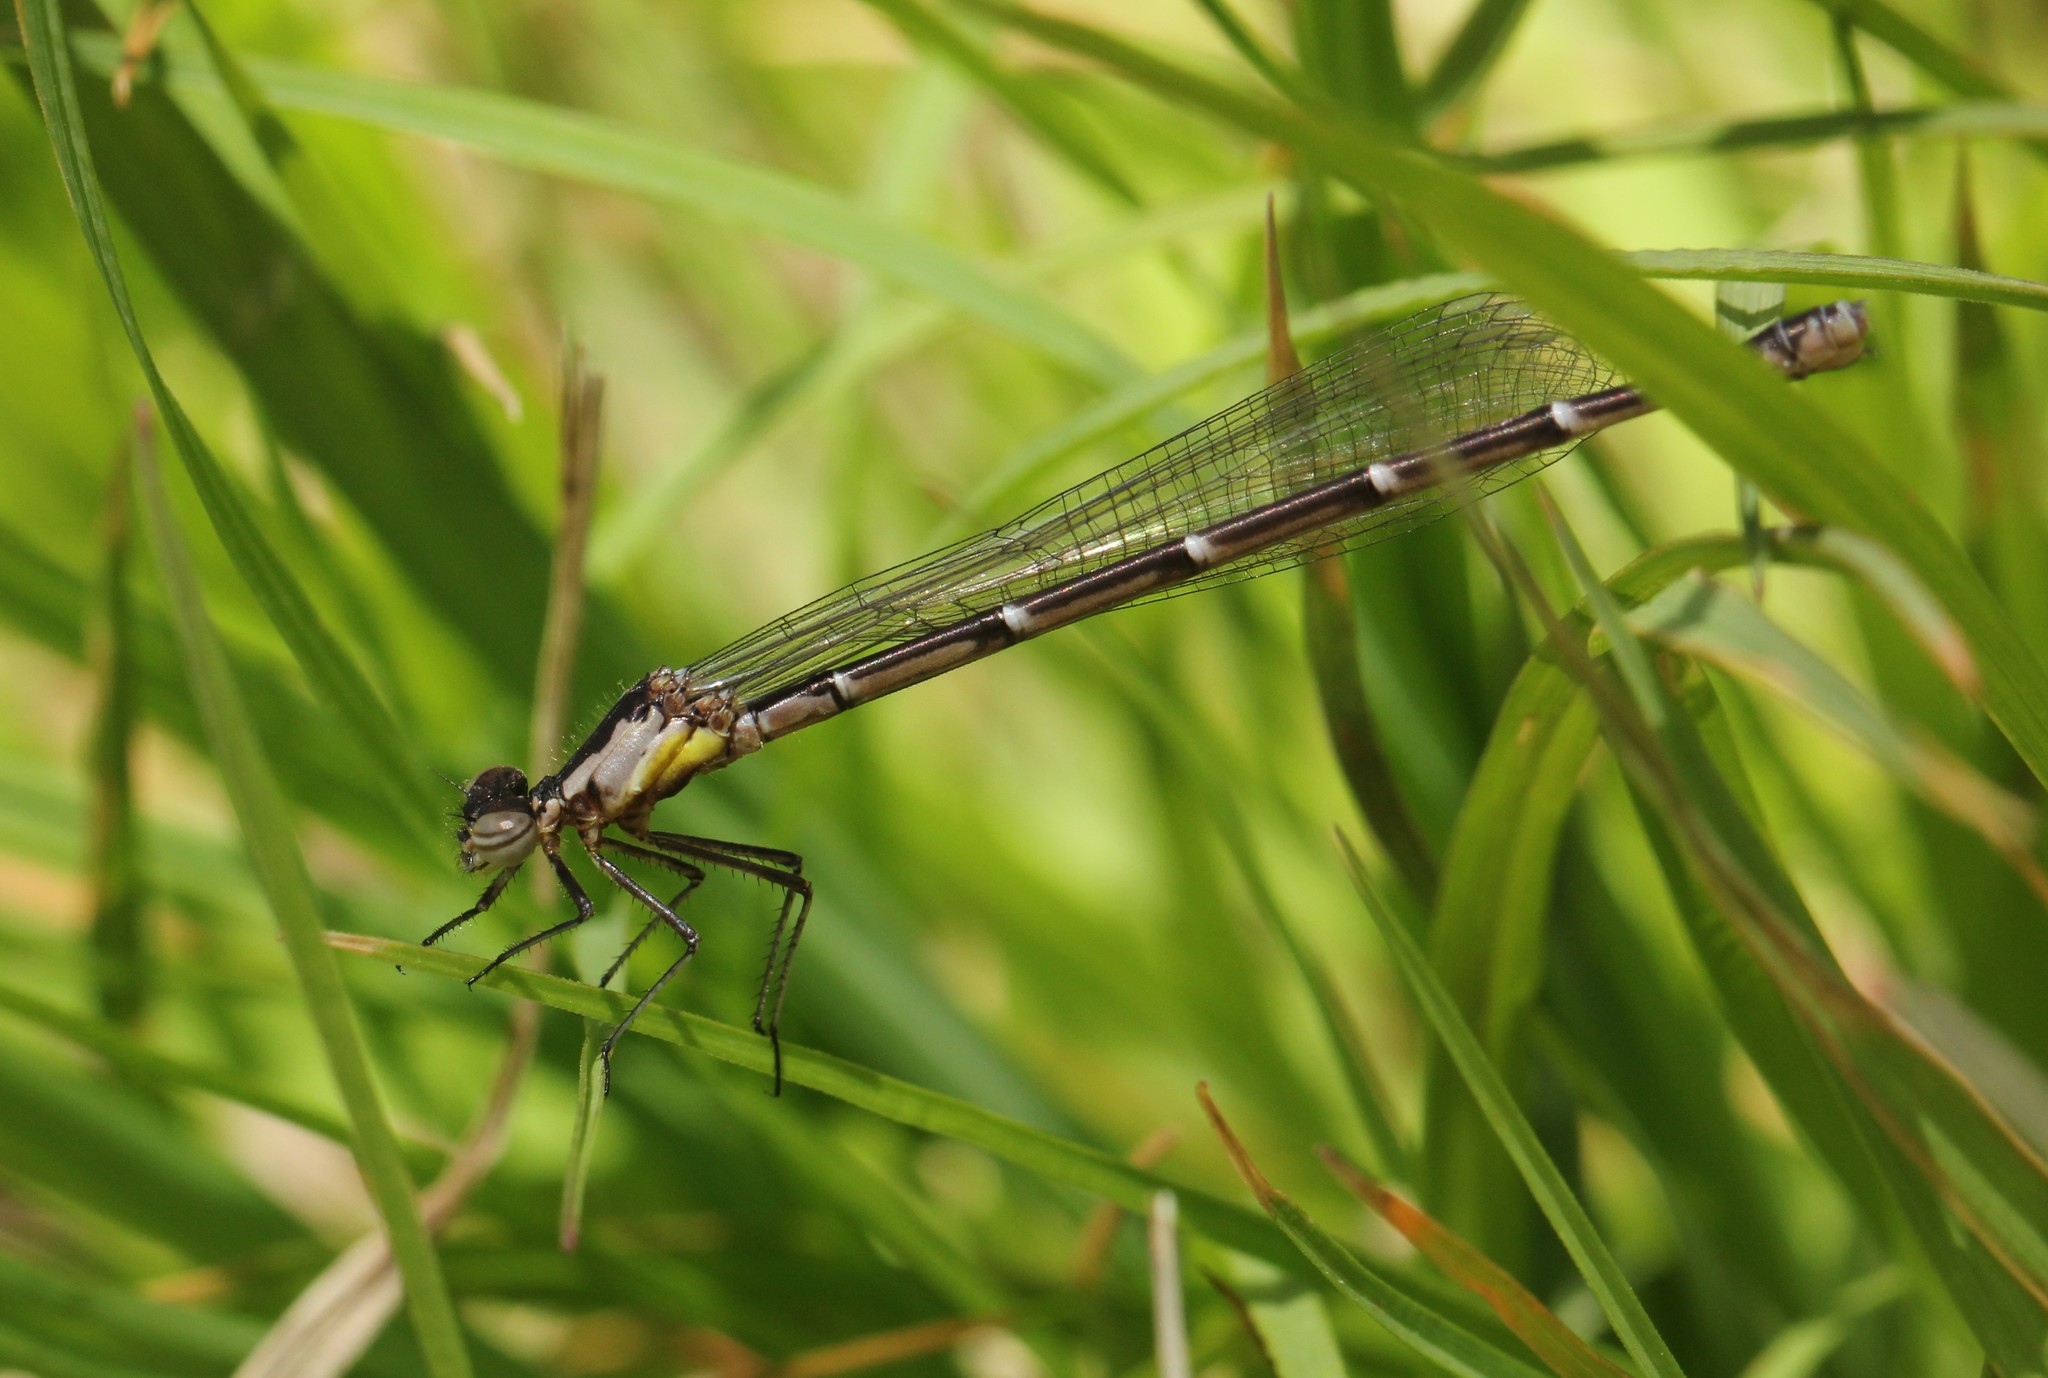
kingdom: Animalia
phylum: Arthropoda
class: Insecta
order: Odonata
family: Coenagrionidae
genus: Chromagrion
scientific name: Chromagrion conditum
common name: Aurora damsel
